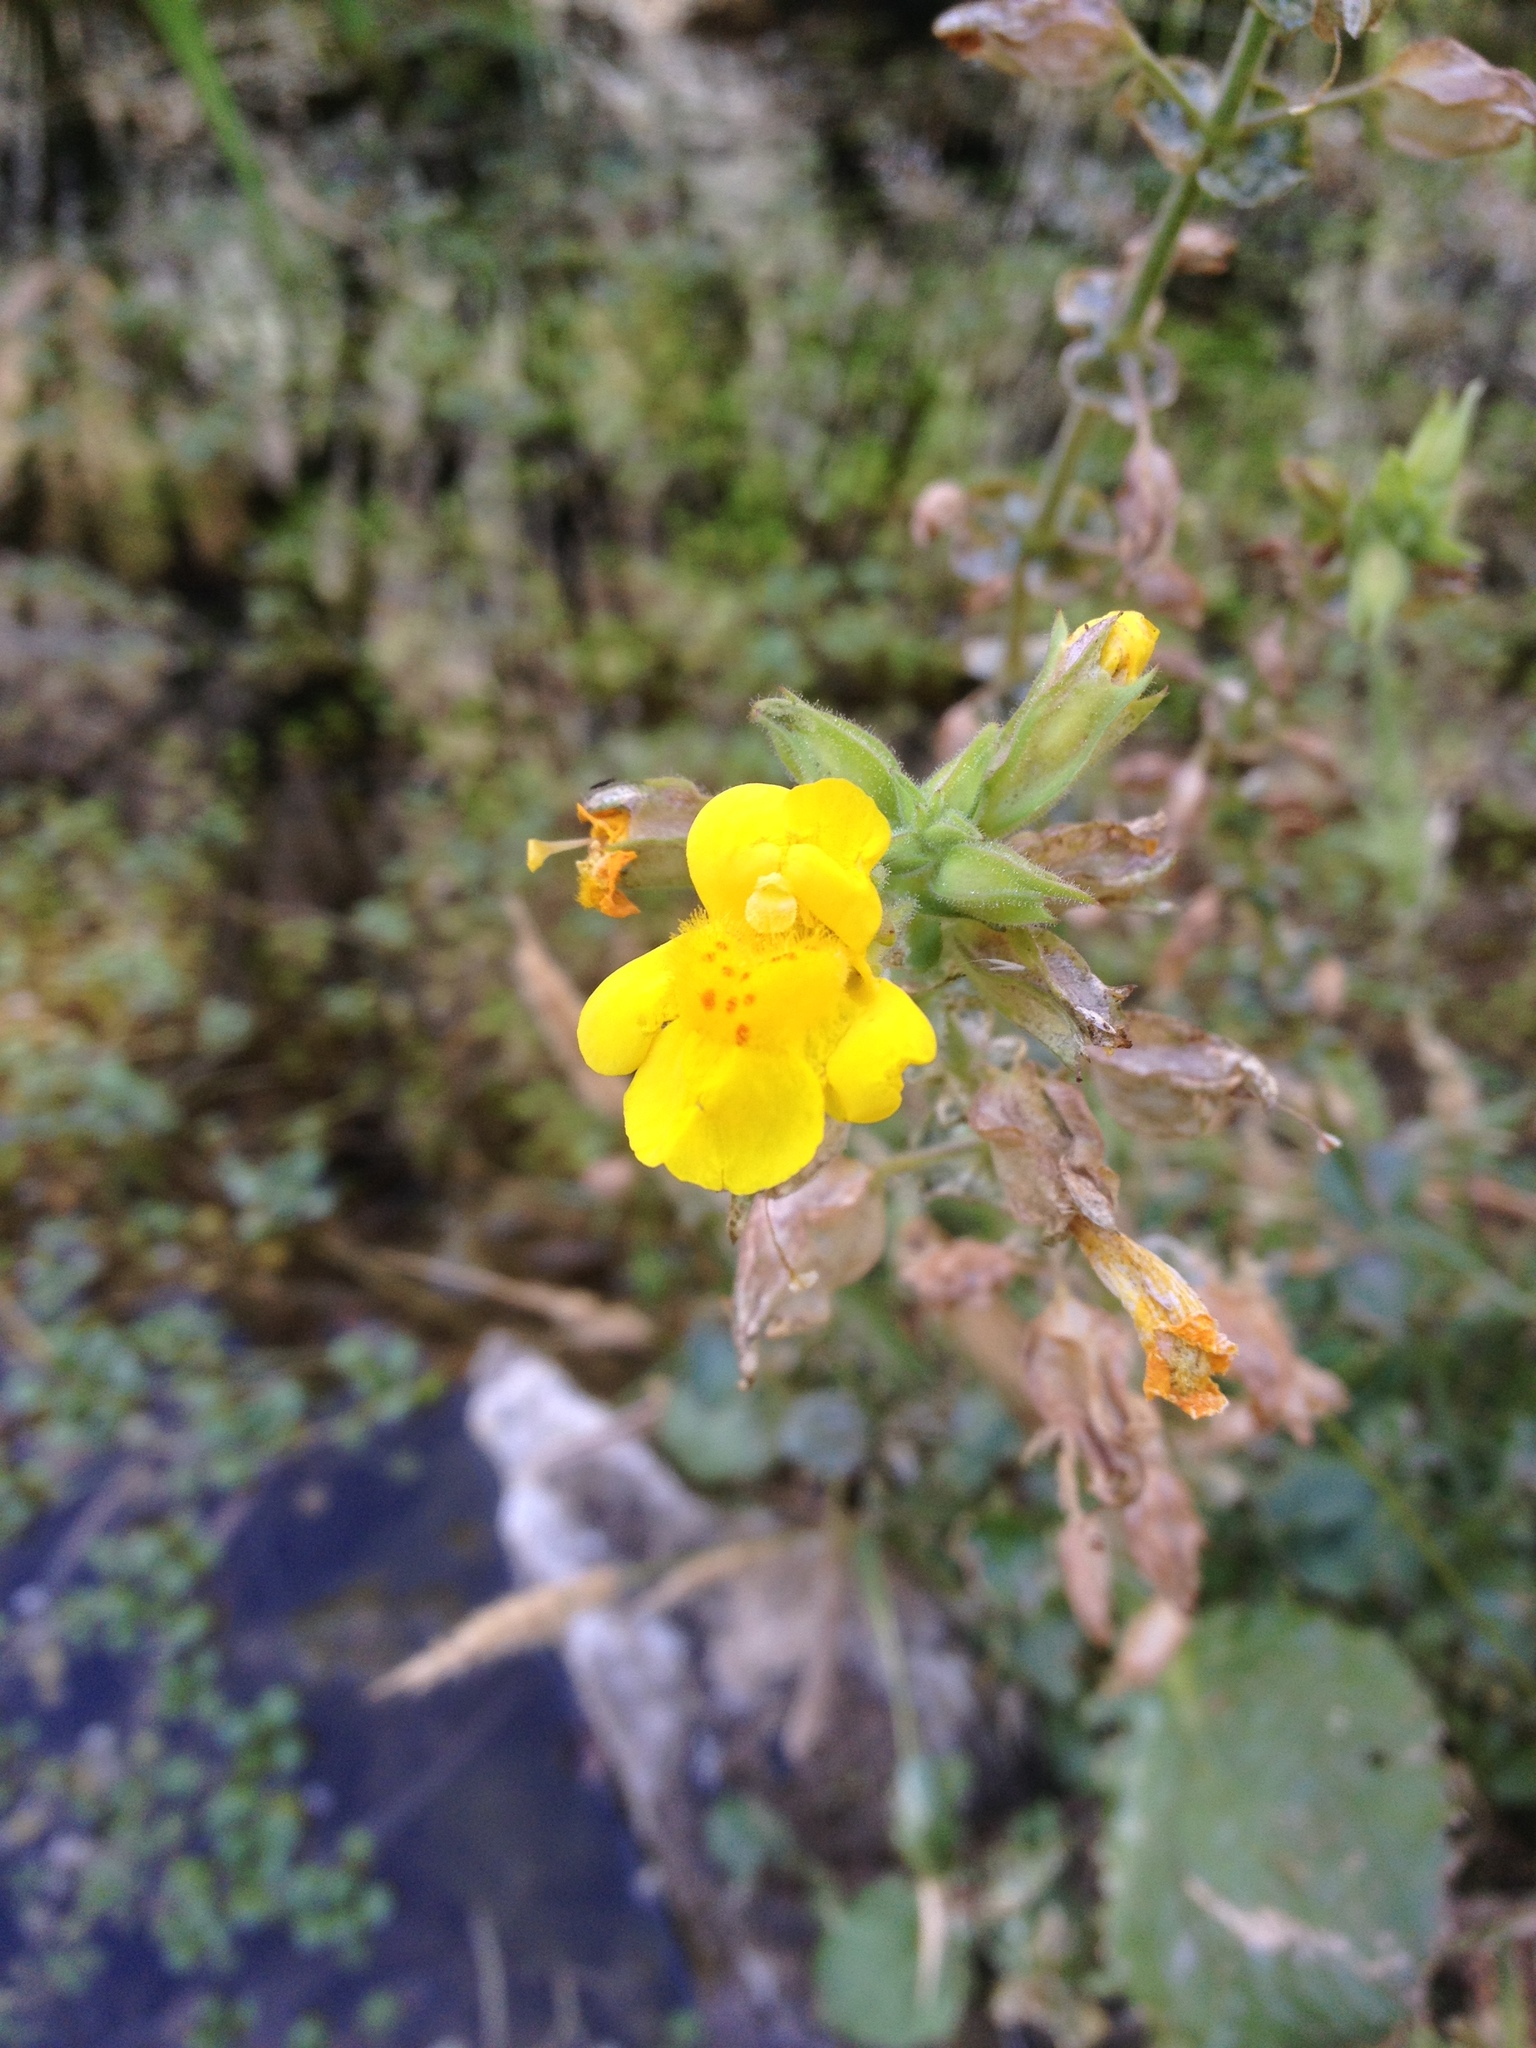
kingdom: Plantae
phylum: Tracheophyta
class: Magnoliopsida
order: Lamiales
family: Phrymaceae
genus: Erythranthe
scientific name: Erythranthe guttata
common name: Monkeyflower
